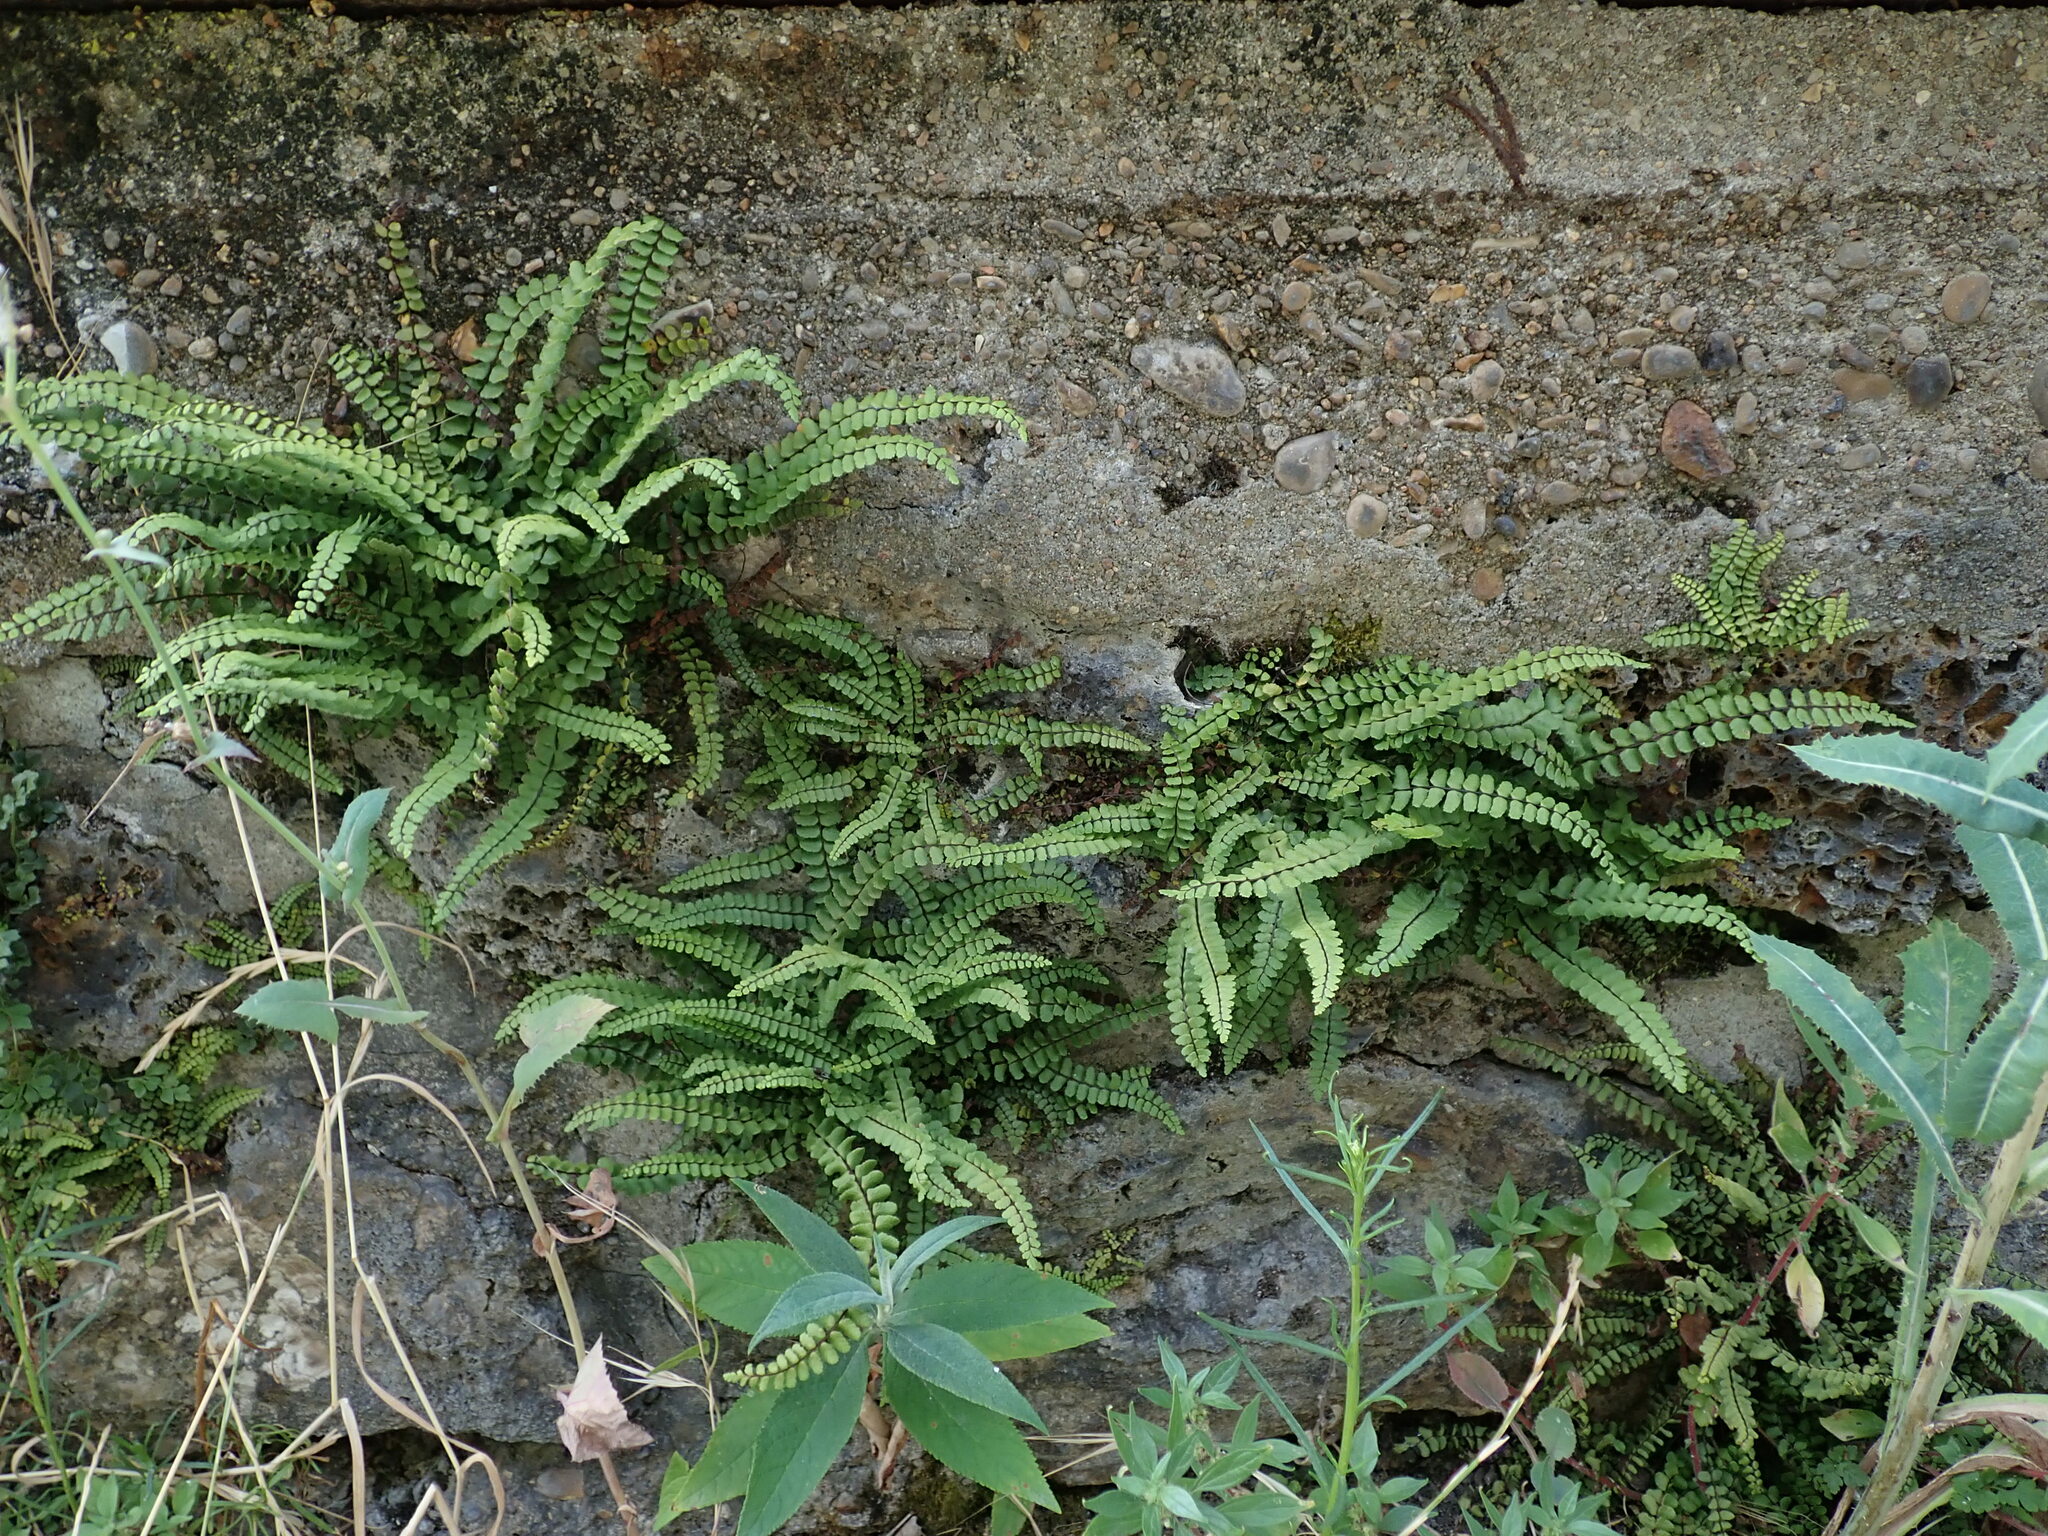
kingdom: Plantae
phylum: Tracheophyta
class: Polypodiopsida
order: Polypodiales
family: Aspleniaceae
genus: Asplenium
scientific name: Asplenium trichomanes
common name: Maidenhair spleenwort
